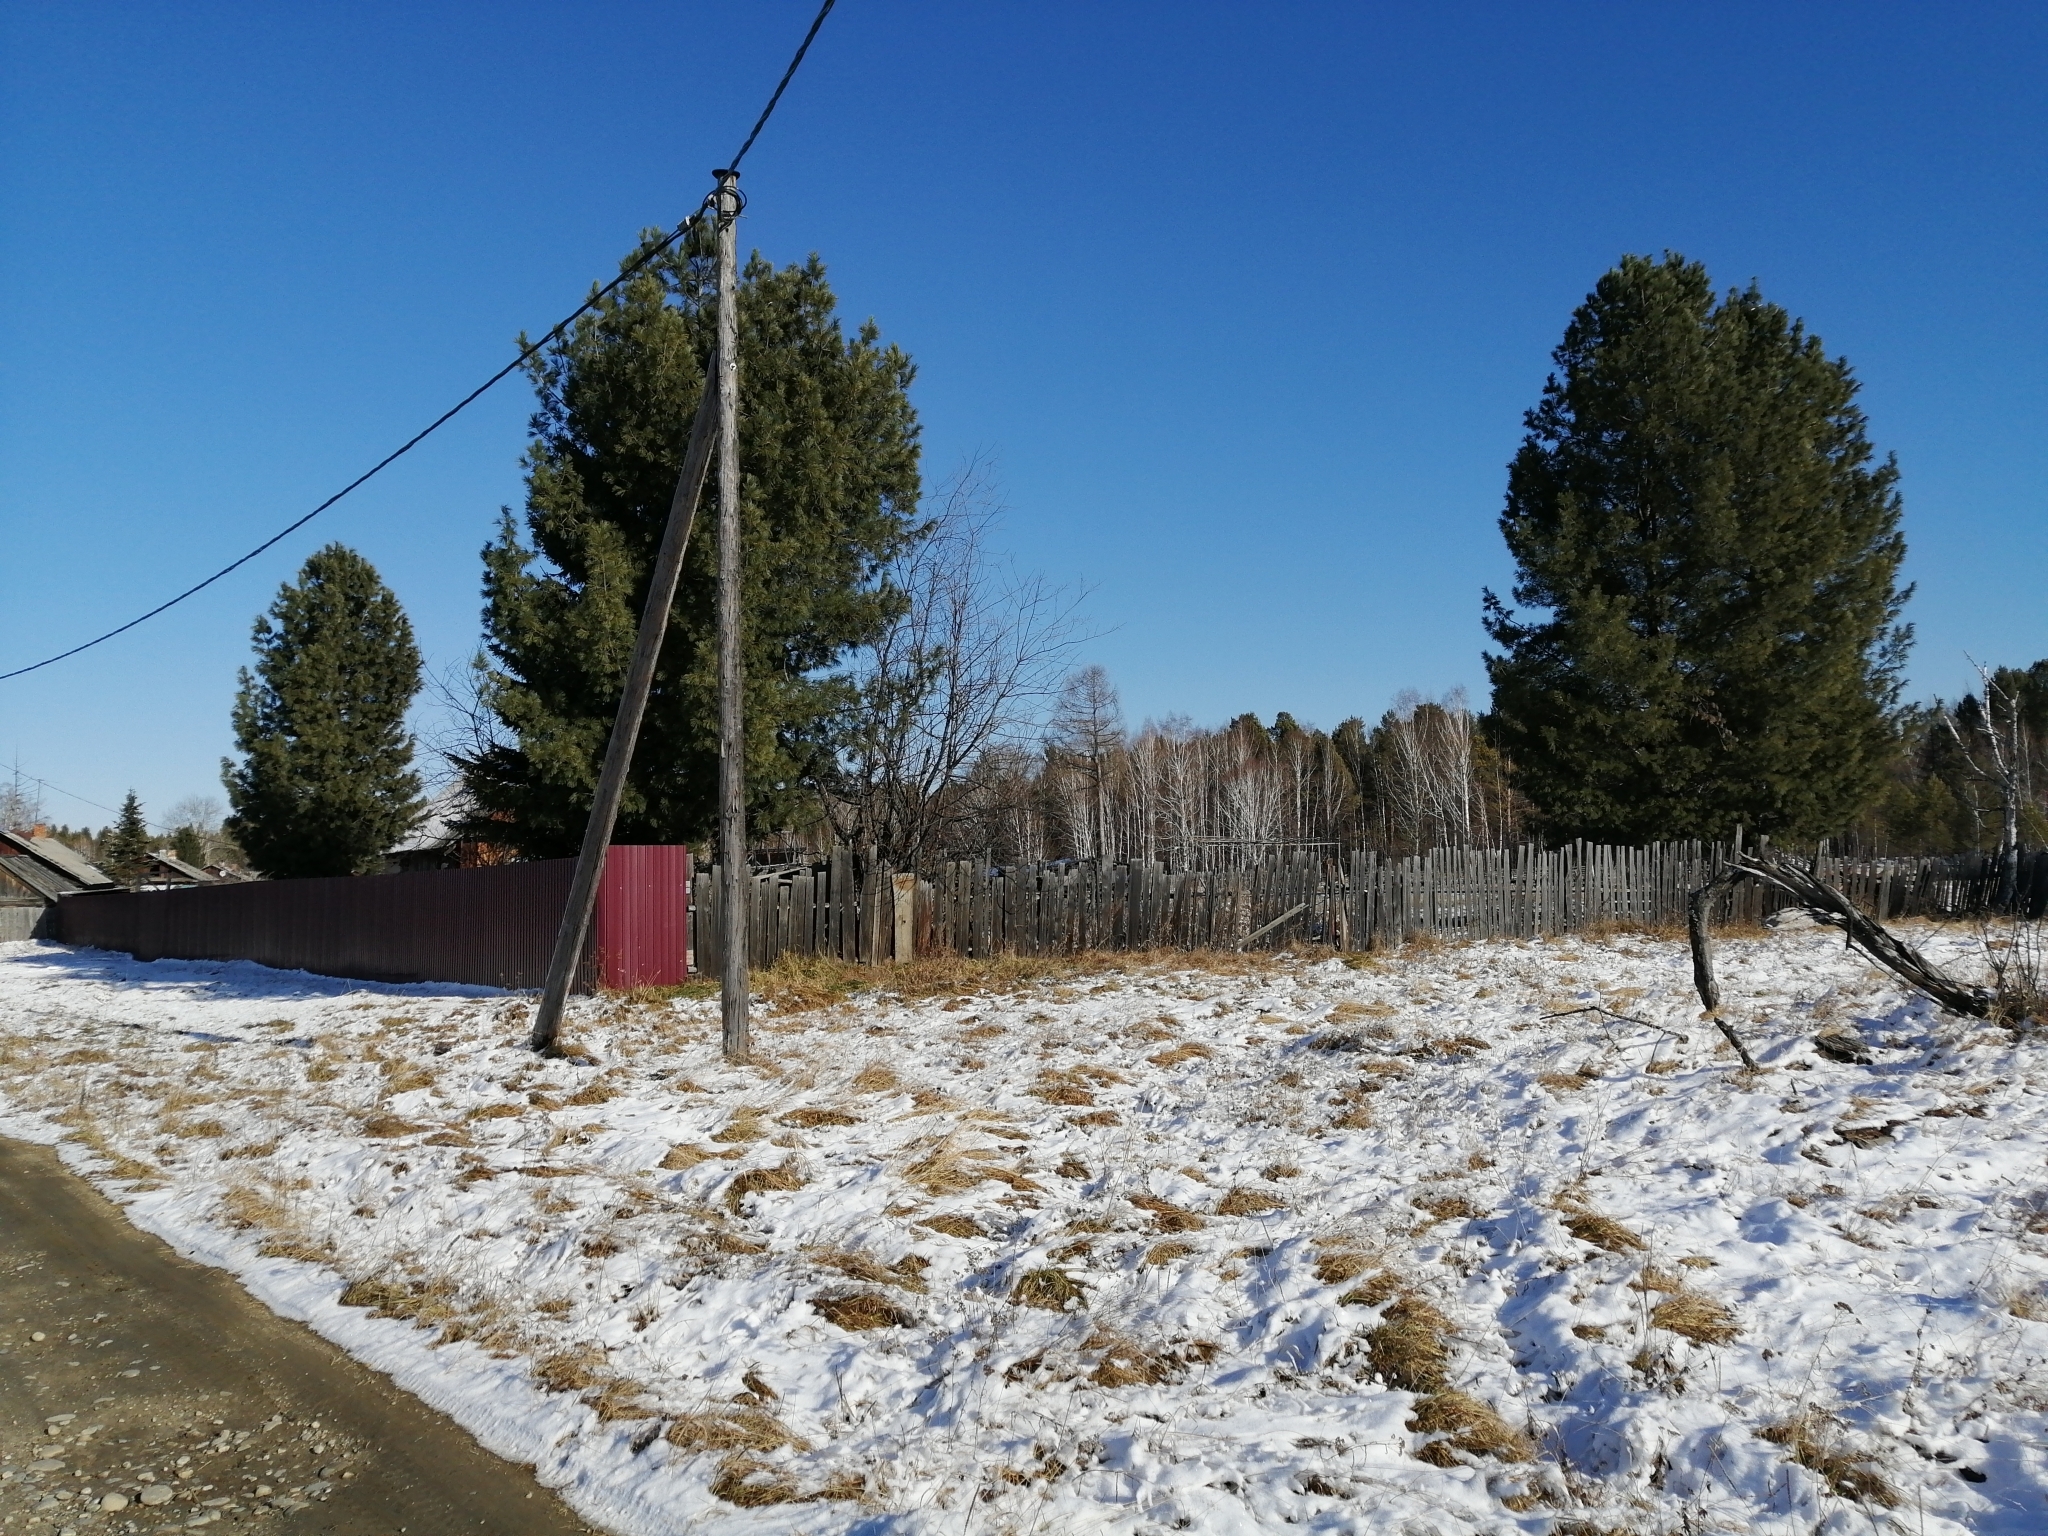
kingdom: Plantae
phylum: Tracheophyta
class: Pinopsida
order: Pinales
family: Pinaceae
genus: Pinus
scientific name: Pinus sibirica
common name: Siberian pine
